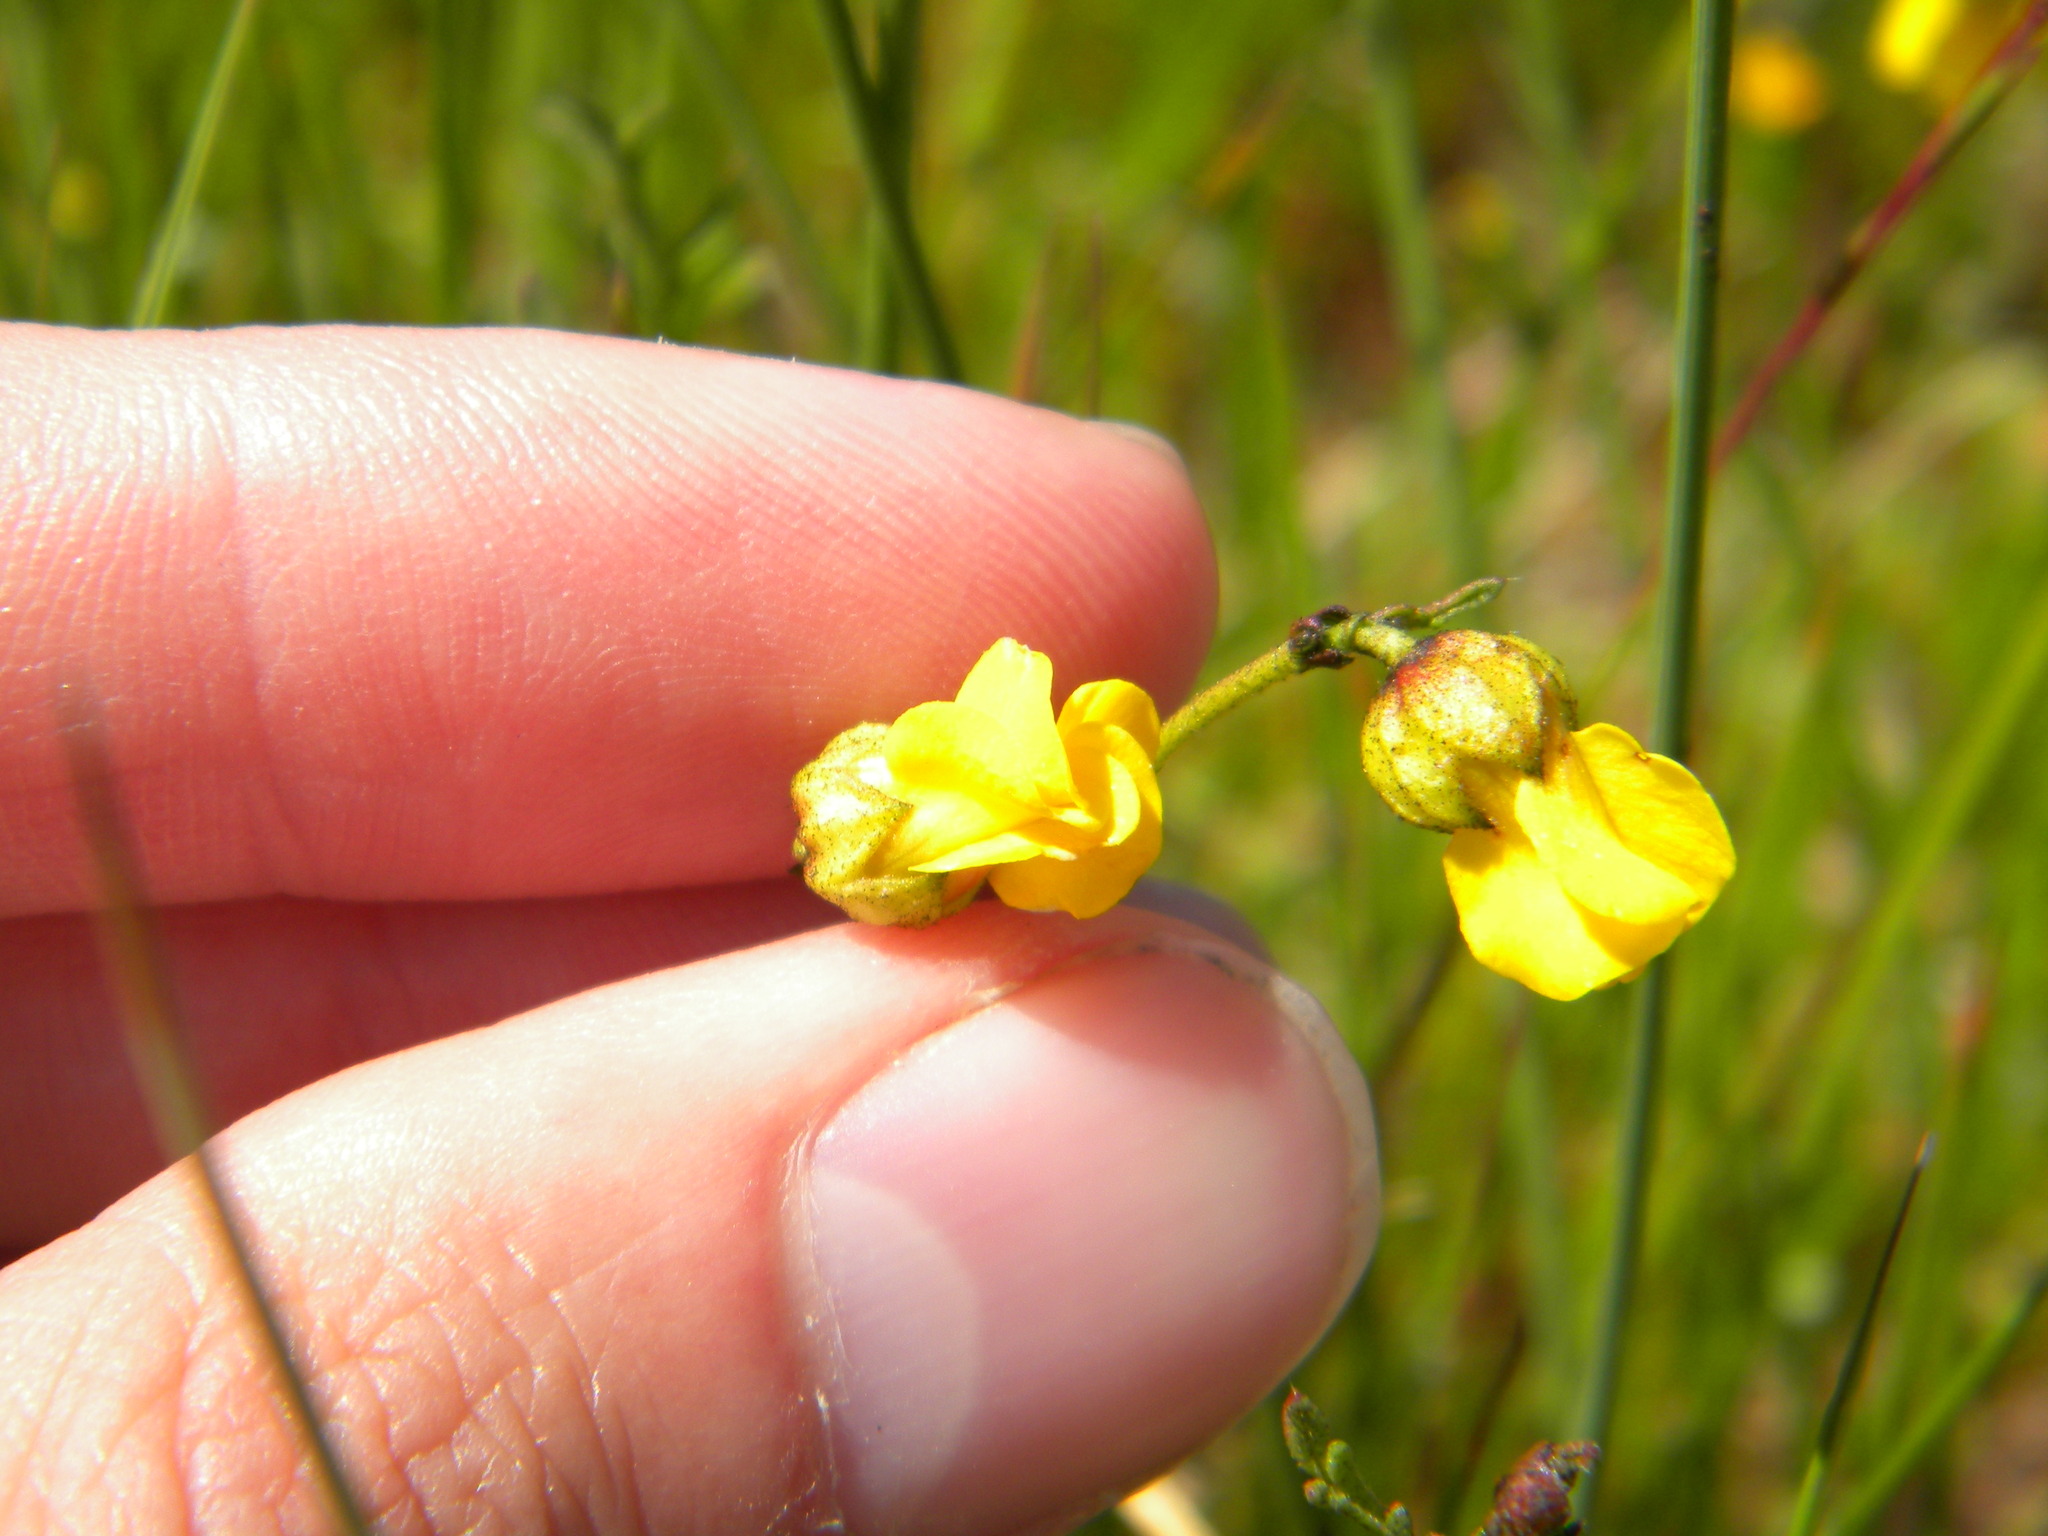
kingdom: Plantae
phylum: Tracheophyta
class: Magnoliopsida
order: Malvales
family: Malvaceae
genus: Hermannia
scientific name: Hermannia procumbens
